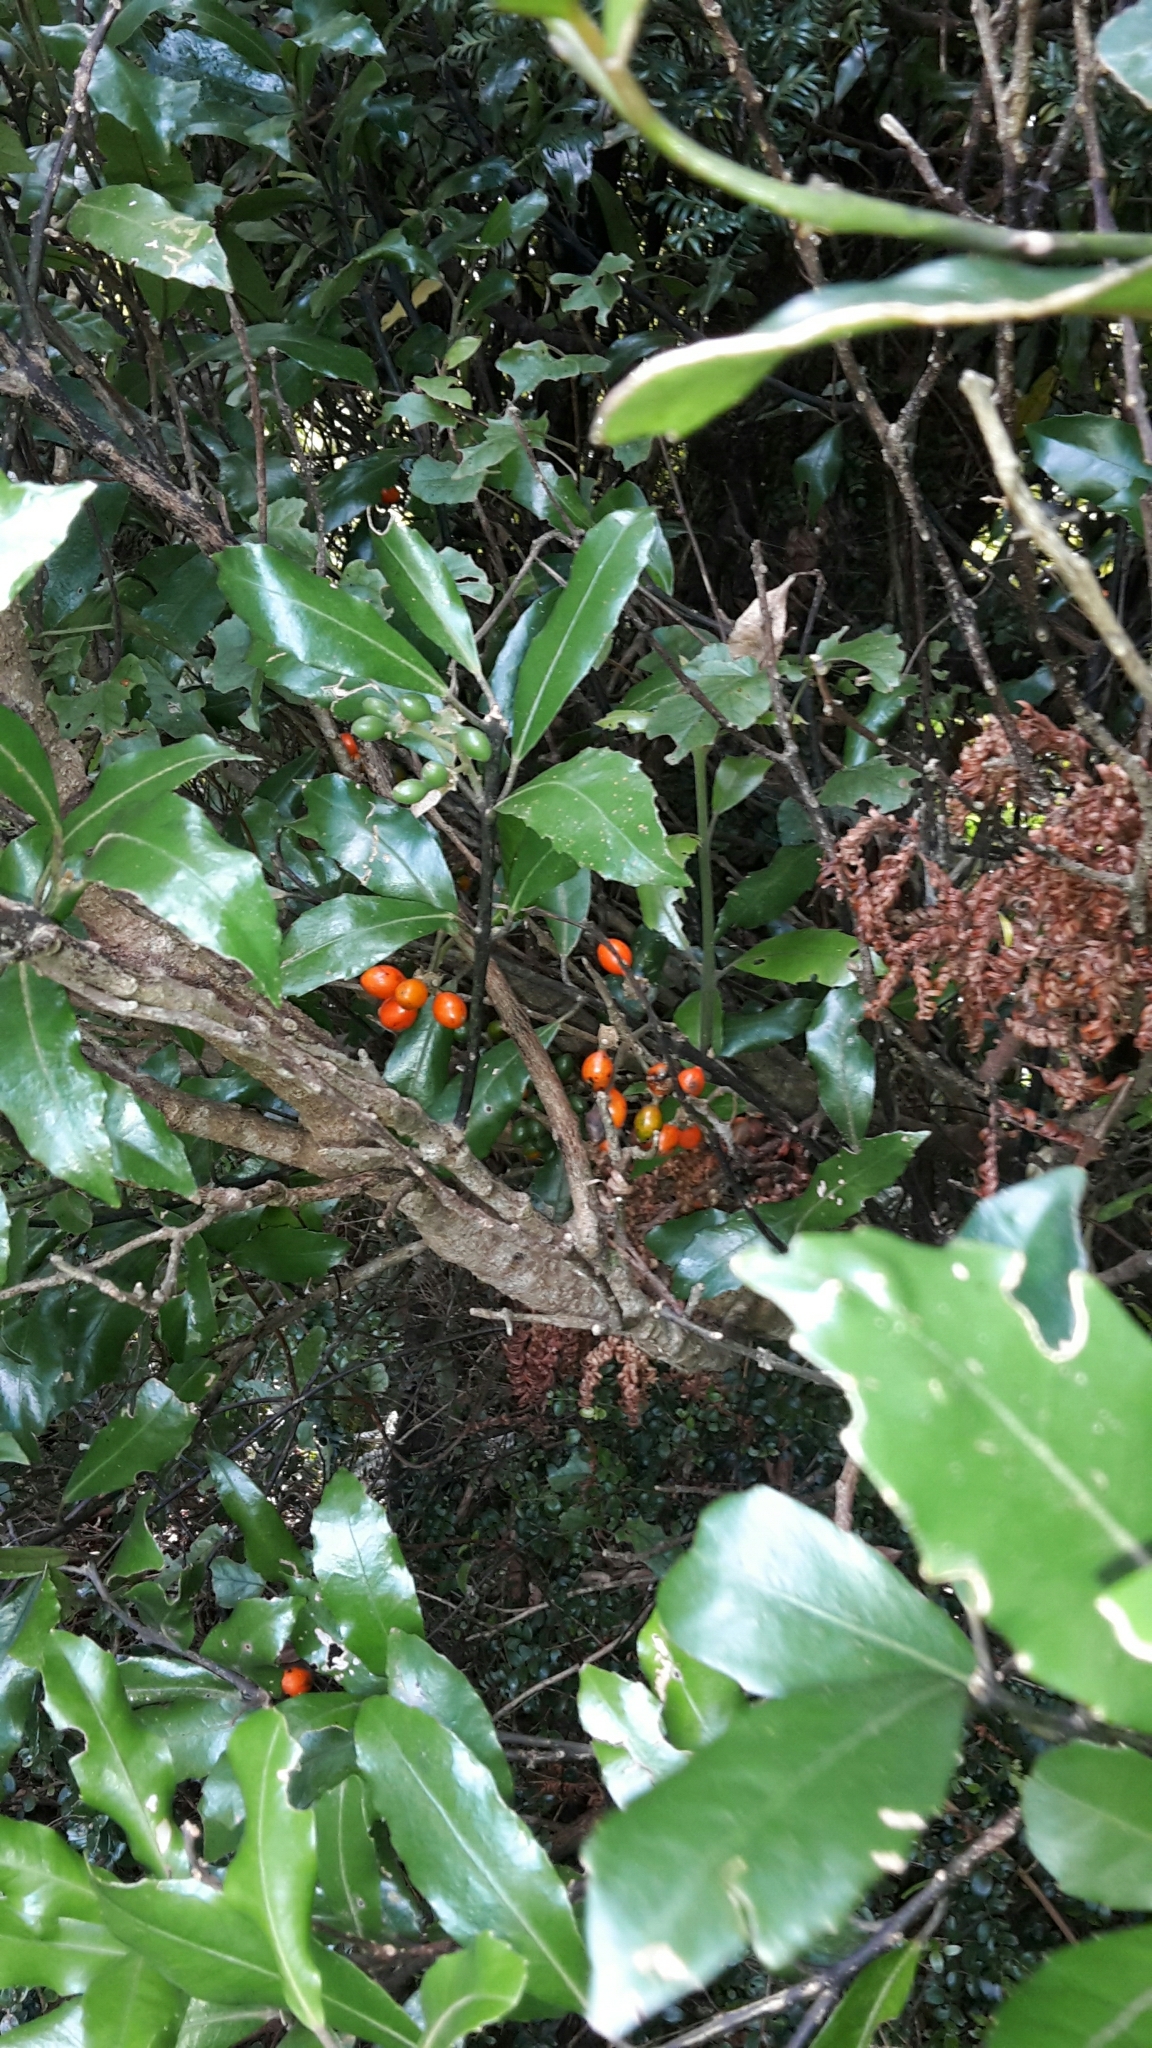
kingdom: Plantae
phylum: Tracheophyta
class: Magnoliopsida
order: Laurales
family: Monimiaceae
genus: Hedycarya
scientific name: Hedycarya arborea
